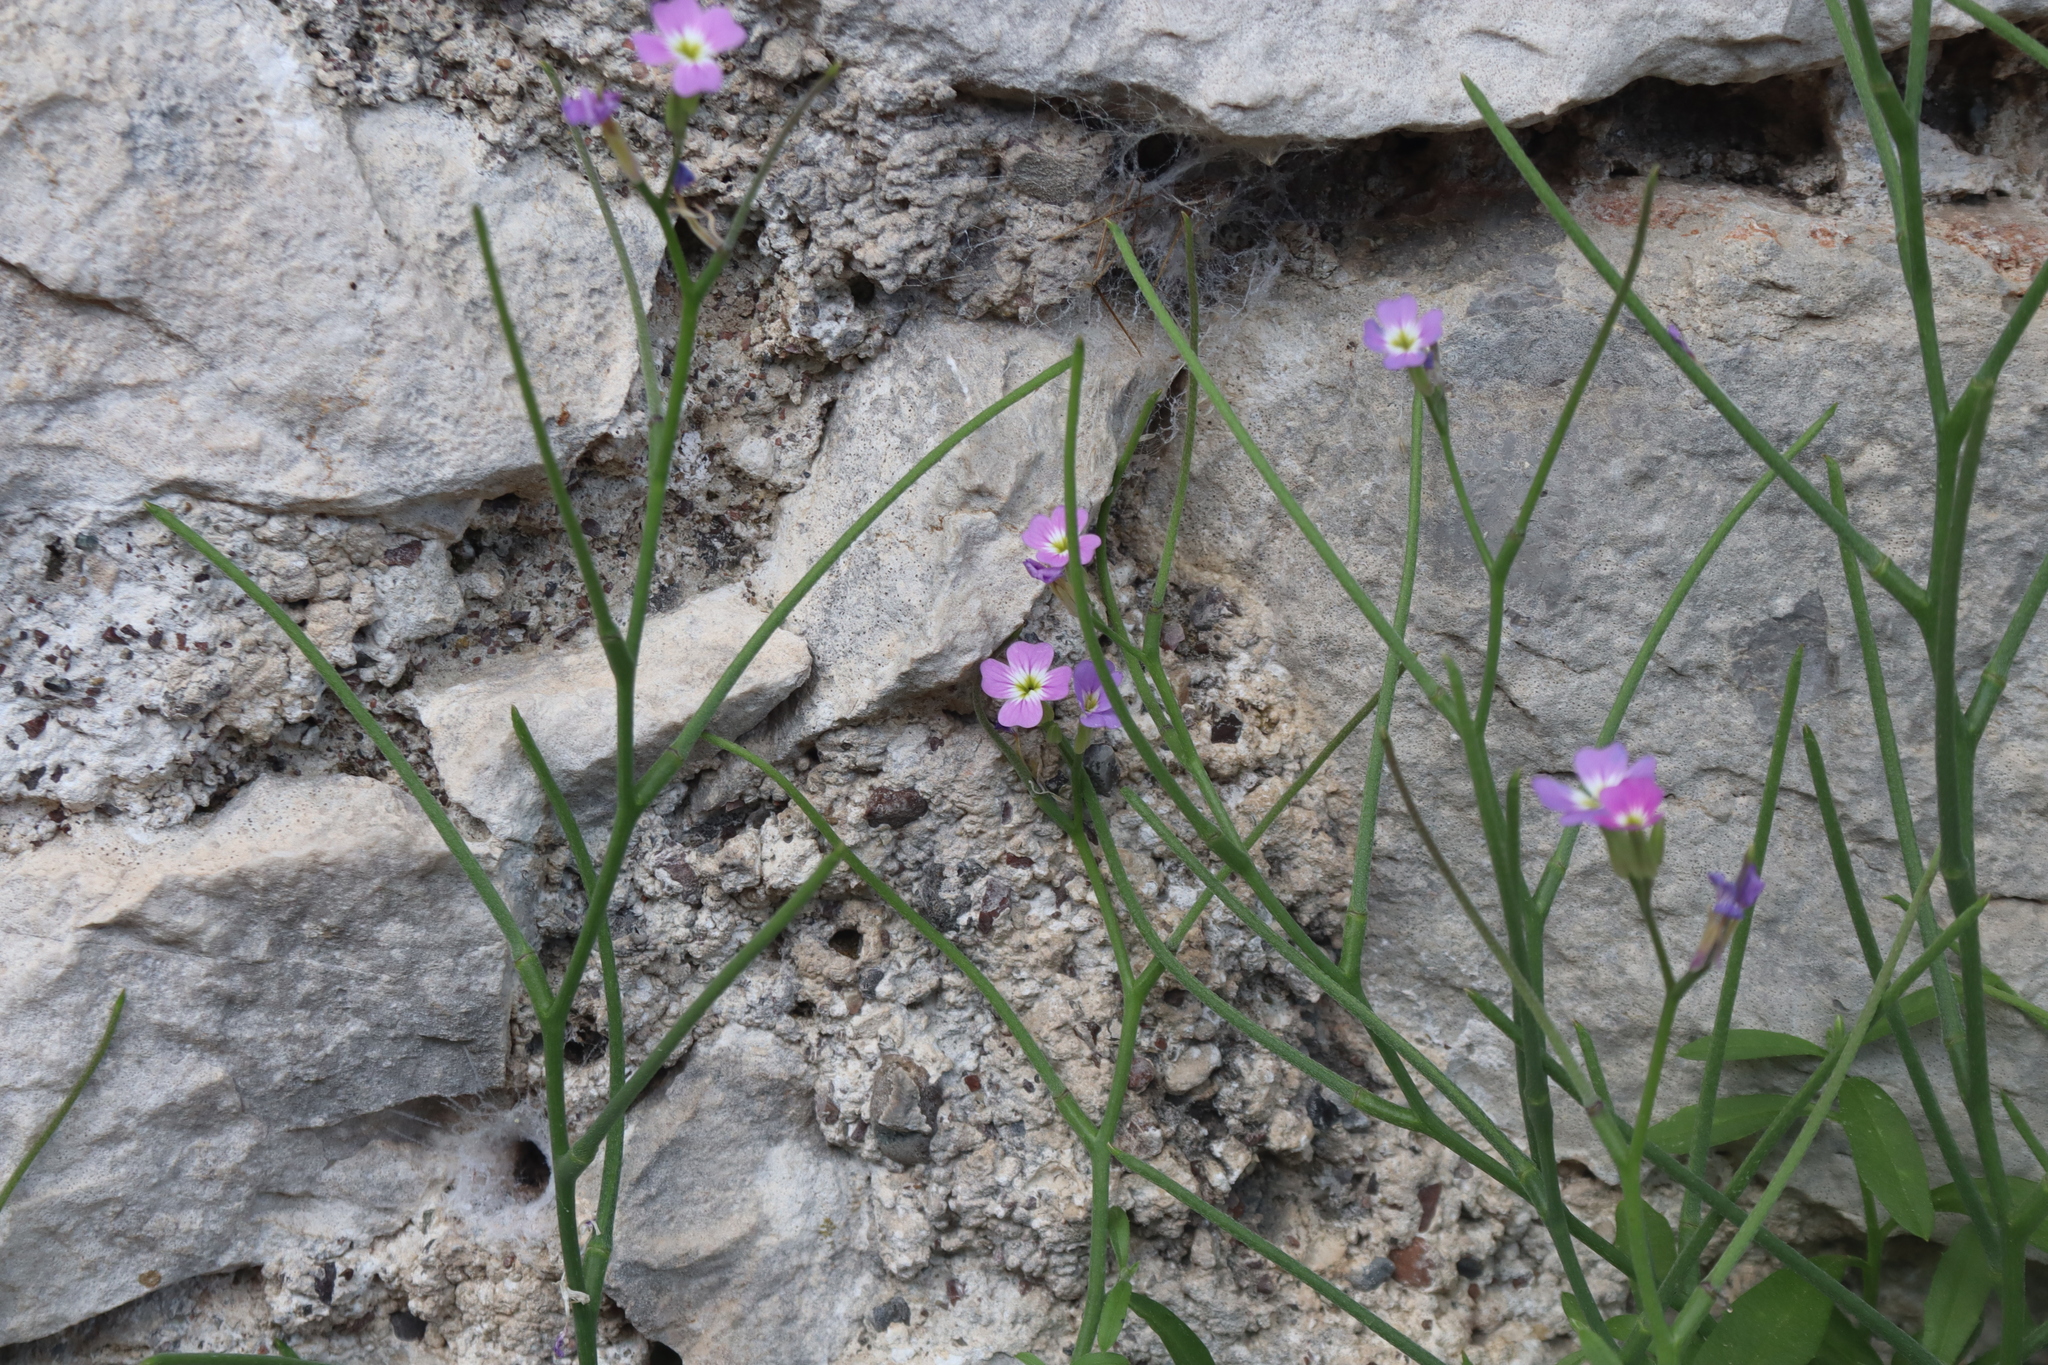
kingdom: Plantae
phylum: Tracheophyta
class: Magnoliopsida
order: Brassicales
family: Brassicaceae
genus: Malcolmia
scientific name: Malcolmia flexuosa
